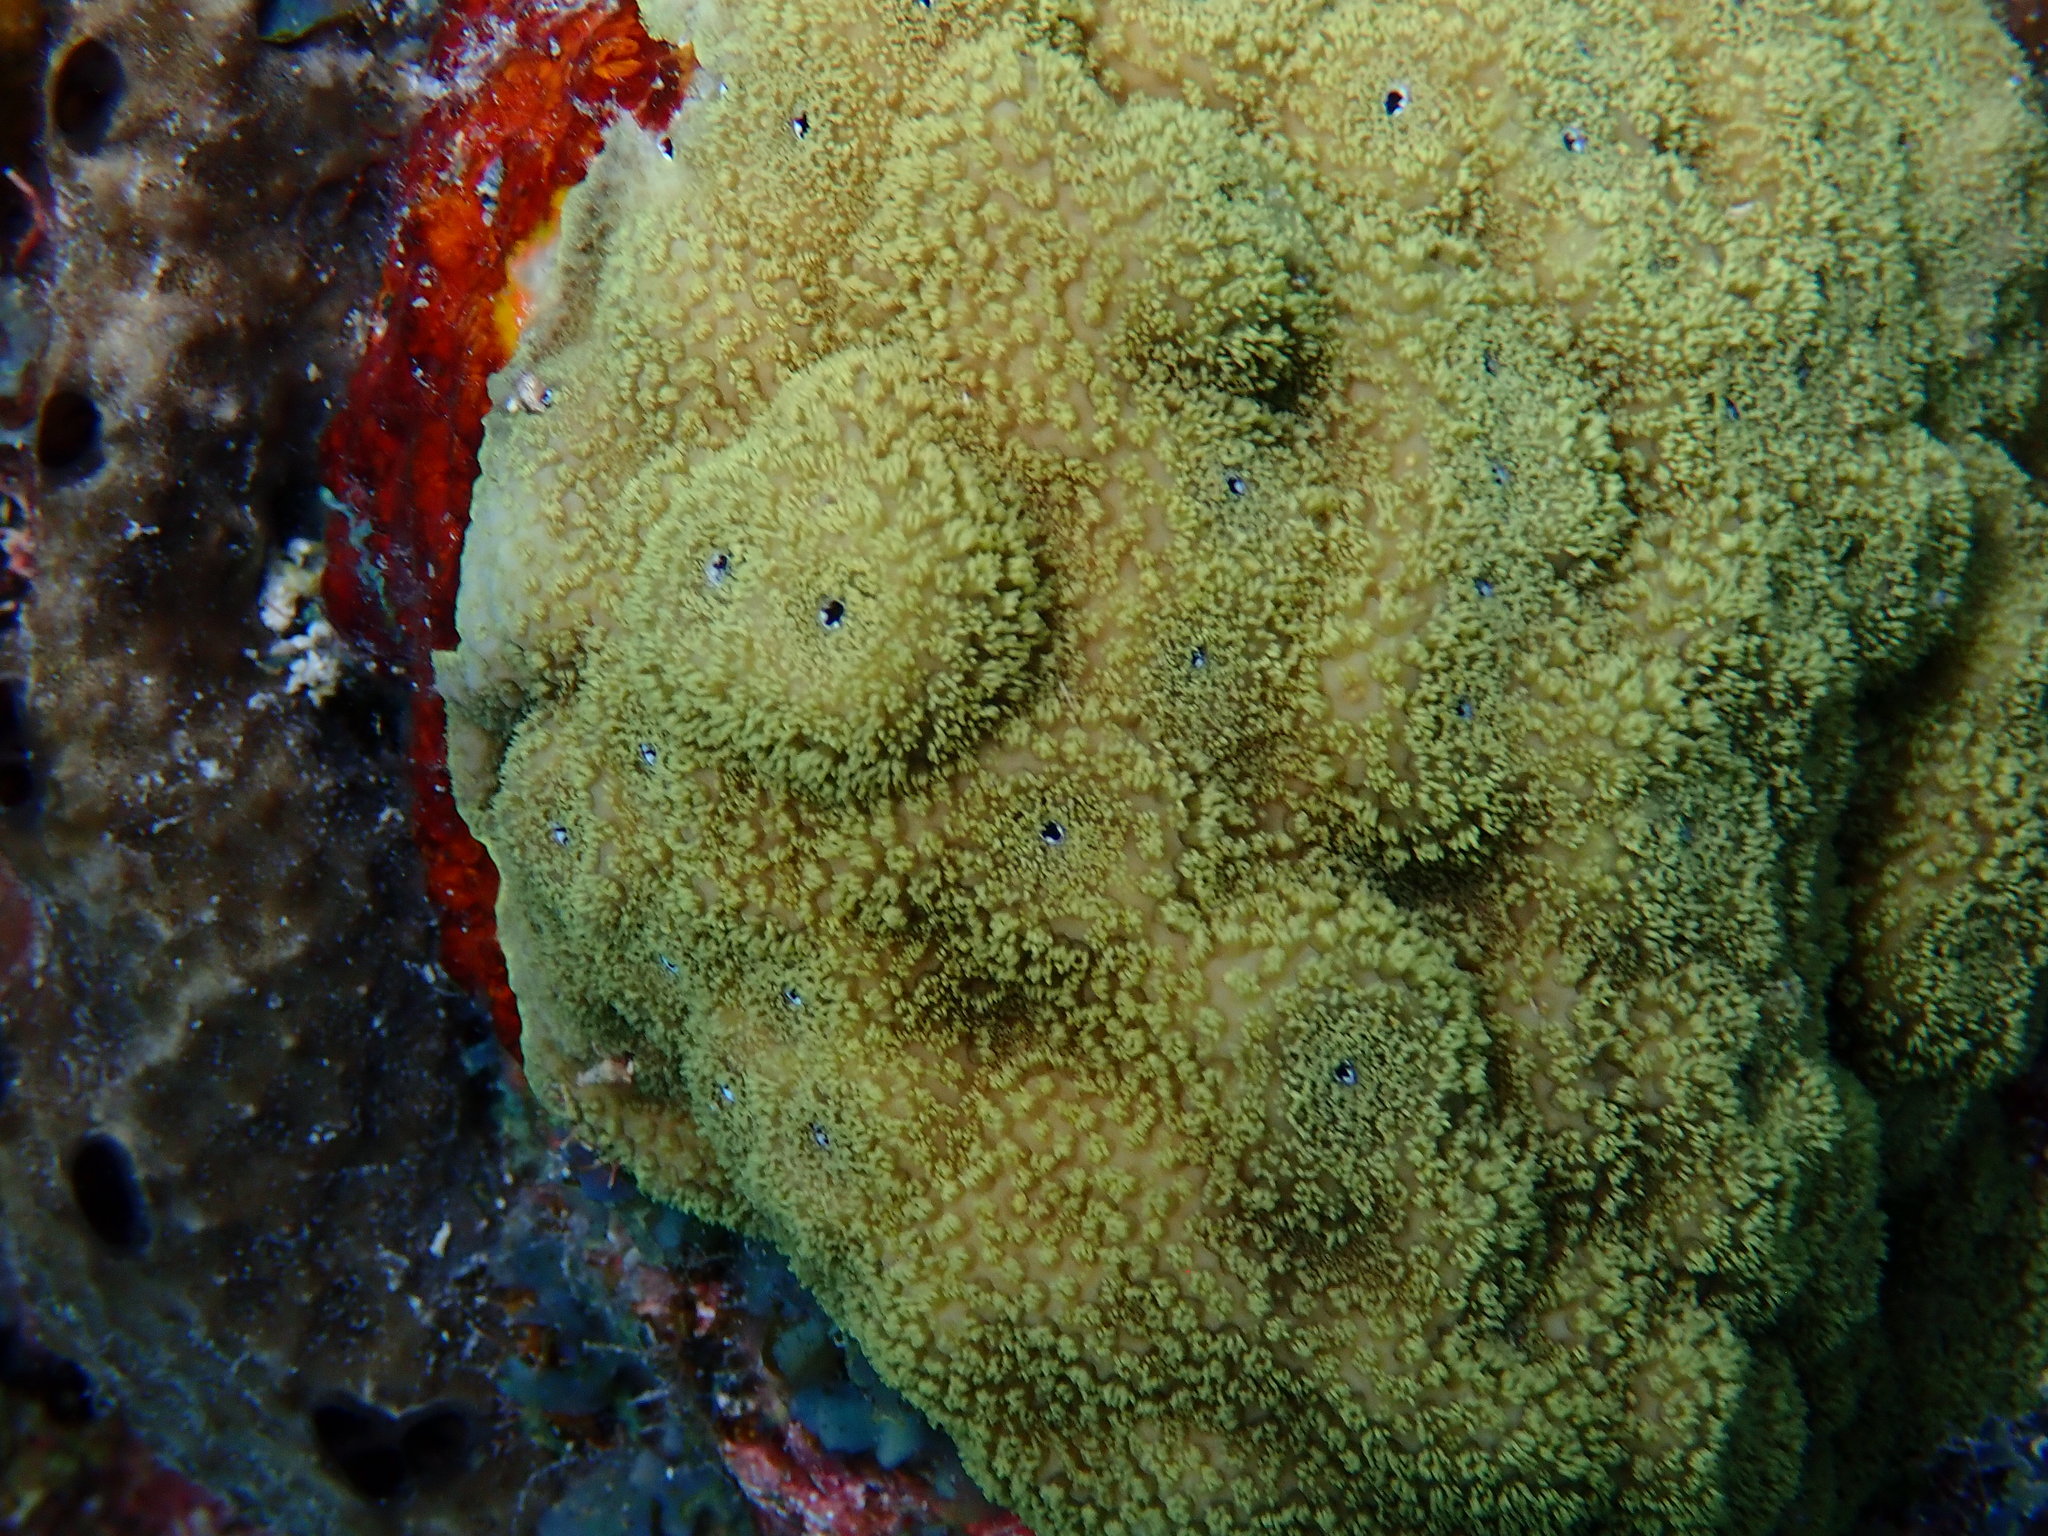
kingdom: Animalia
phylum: Cnidaria
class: Anthozoa
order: Scleractinia
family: Poritidae
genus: Porites
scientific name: Porites astreoides
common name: Mustard hill coral
